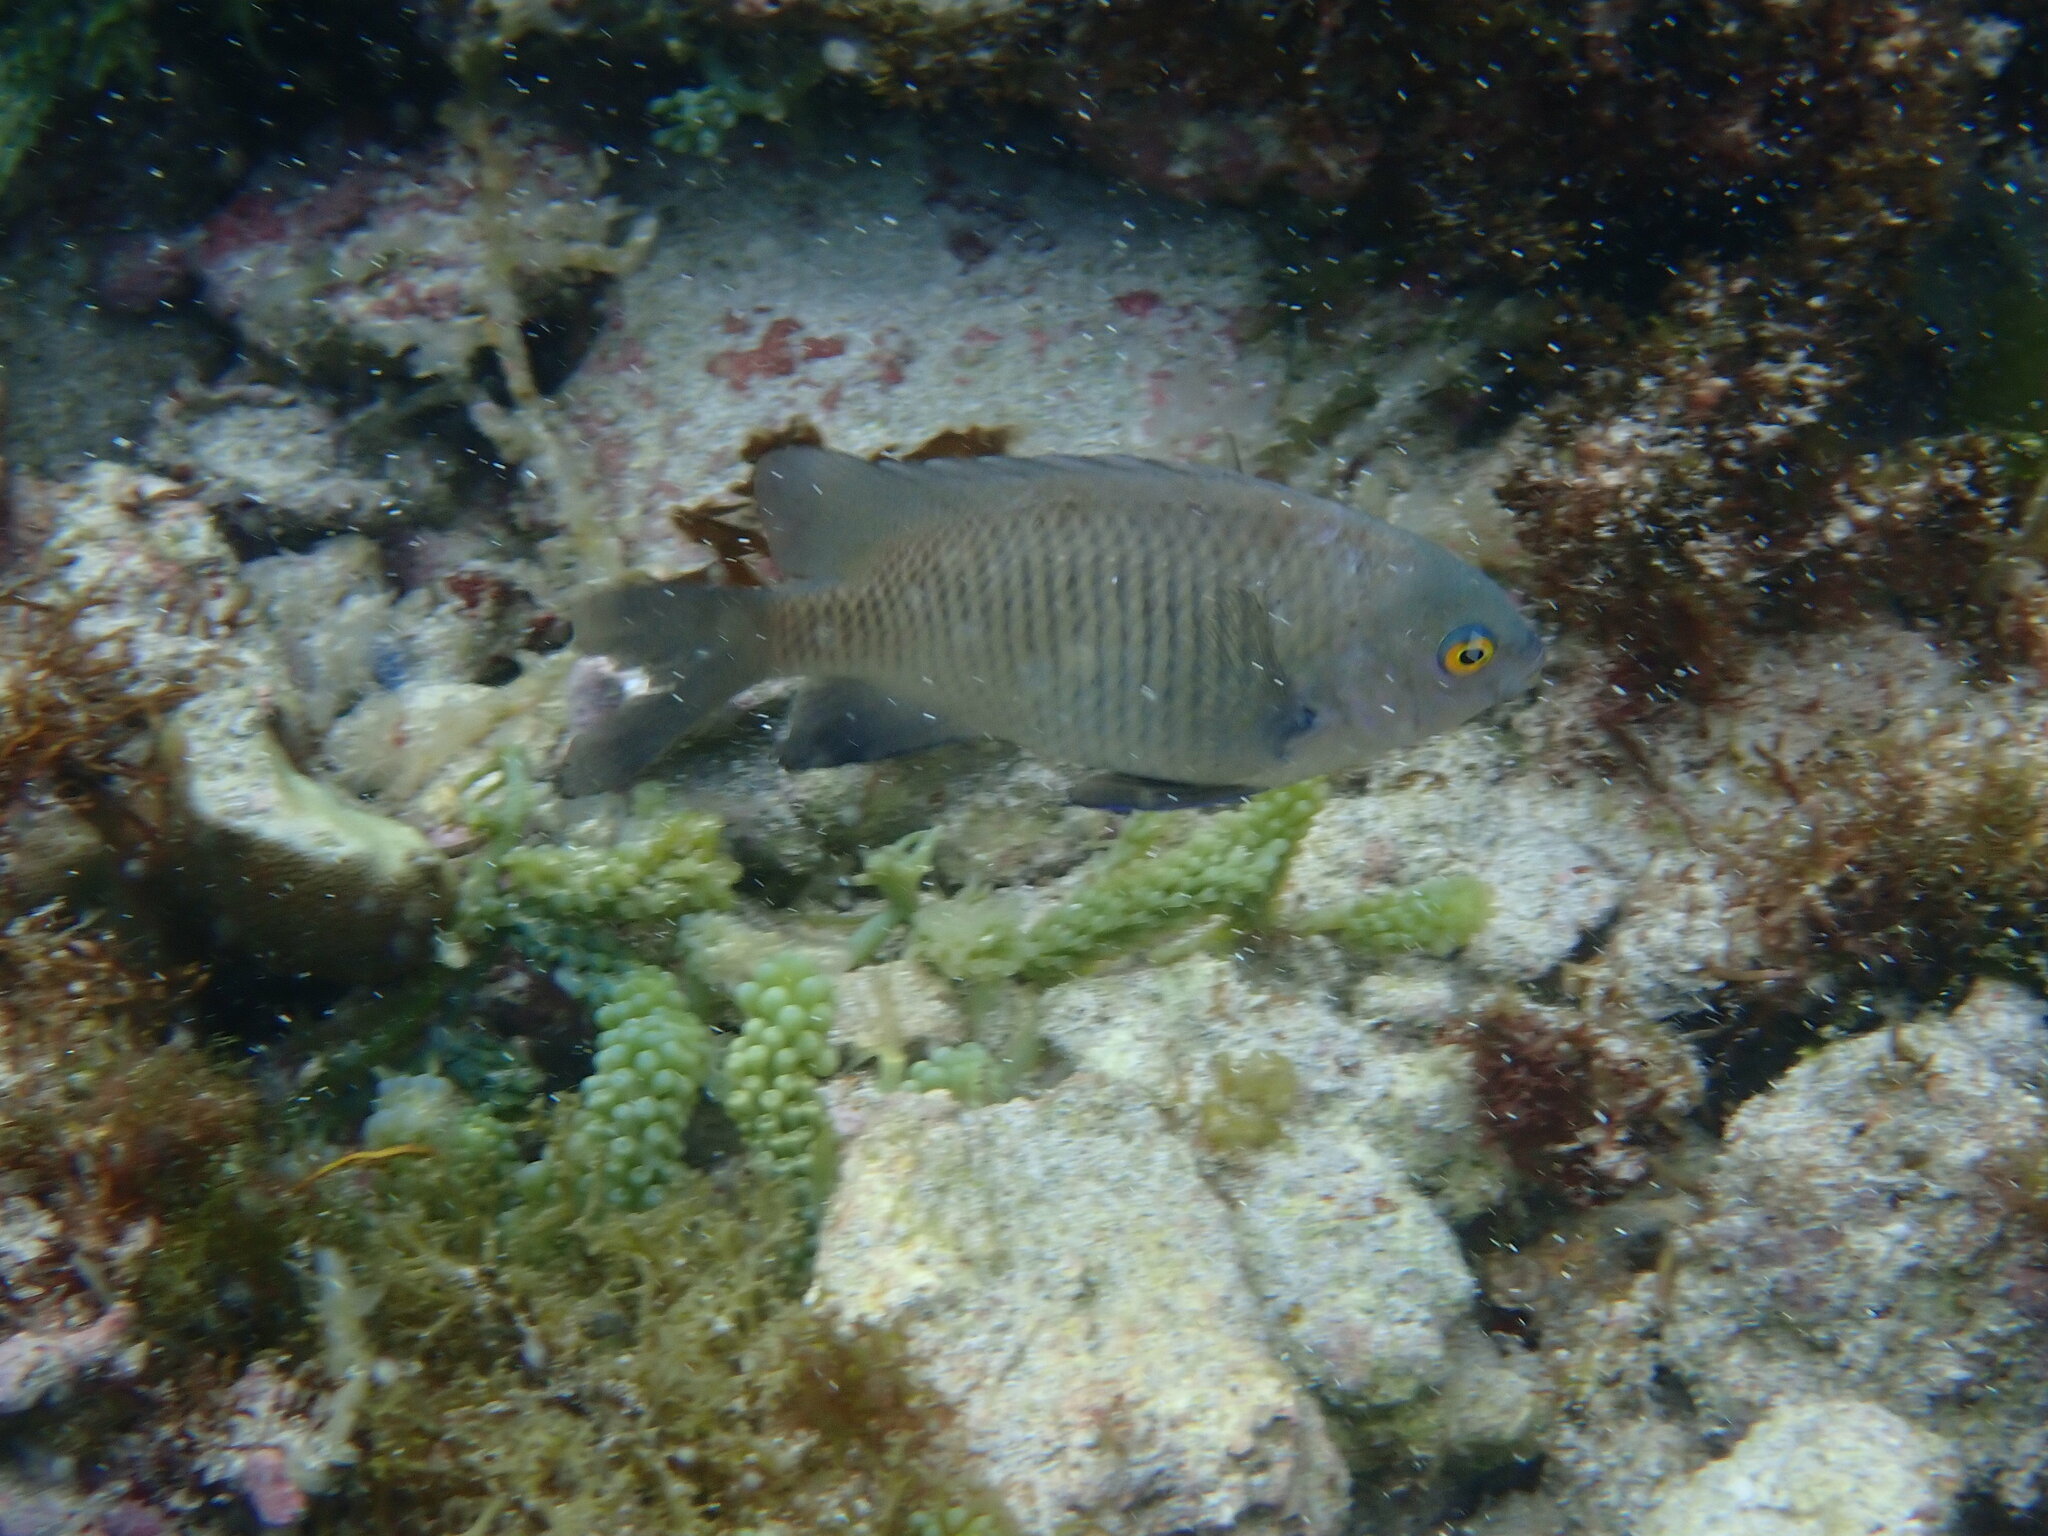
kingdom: Animalia
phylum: Chordata
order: Perciformes
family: Pomacentridae
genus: Stegastes
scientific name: Stegastes fasciolatus
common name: Pacific gregory
